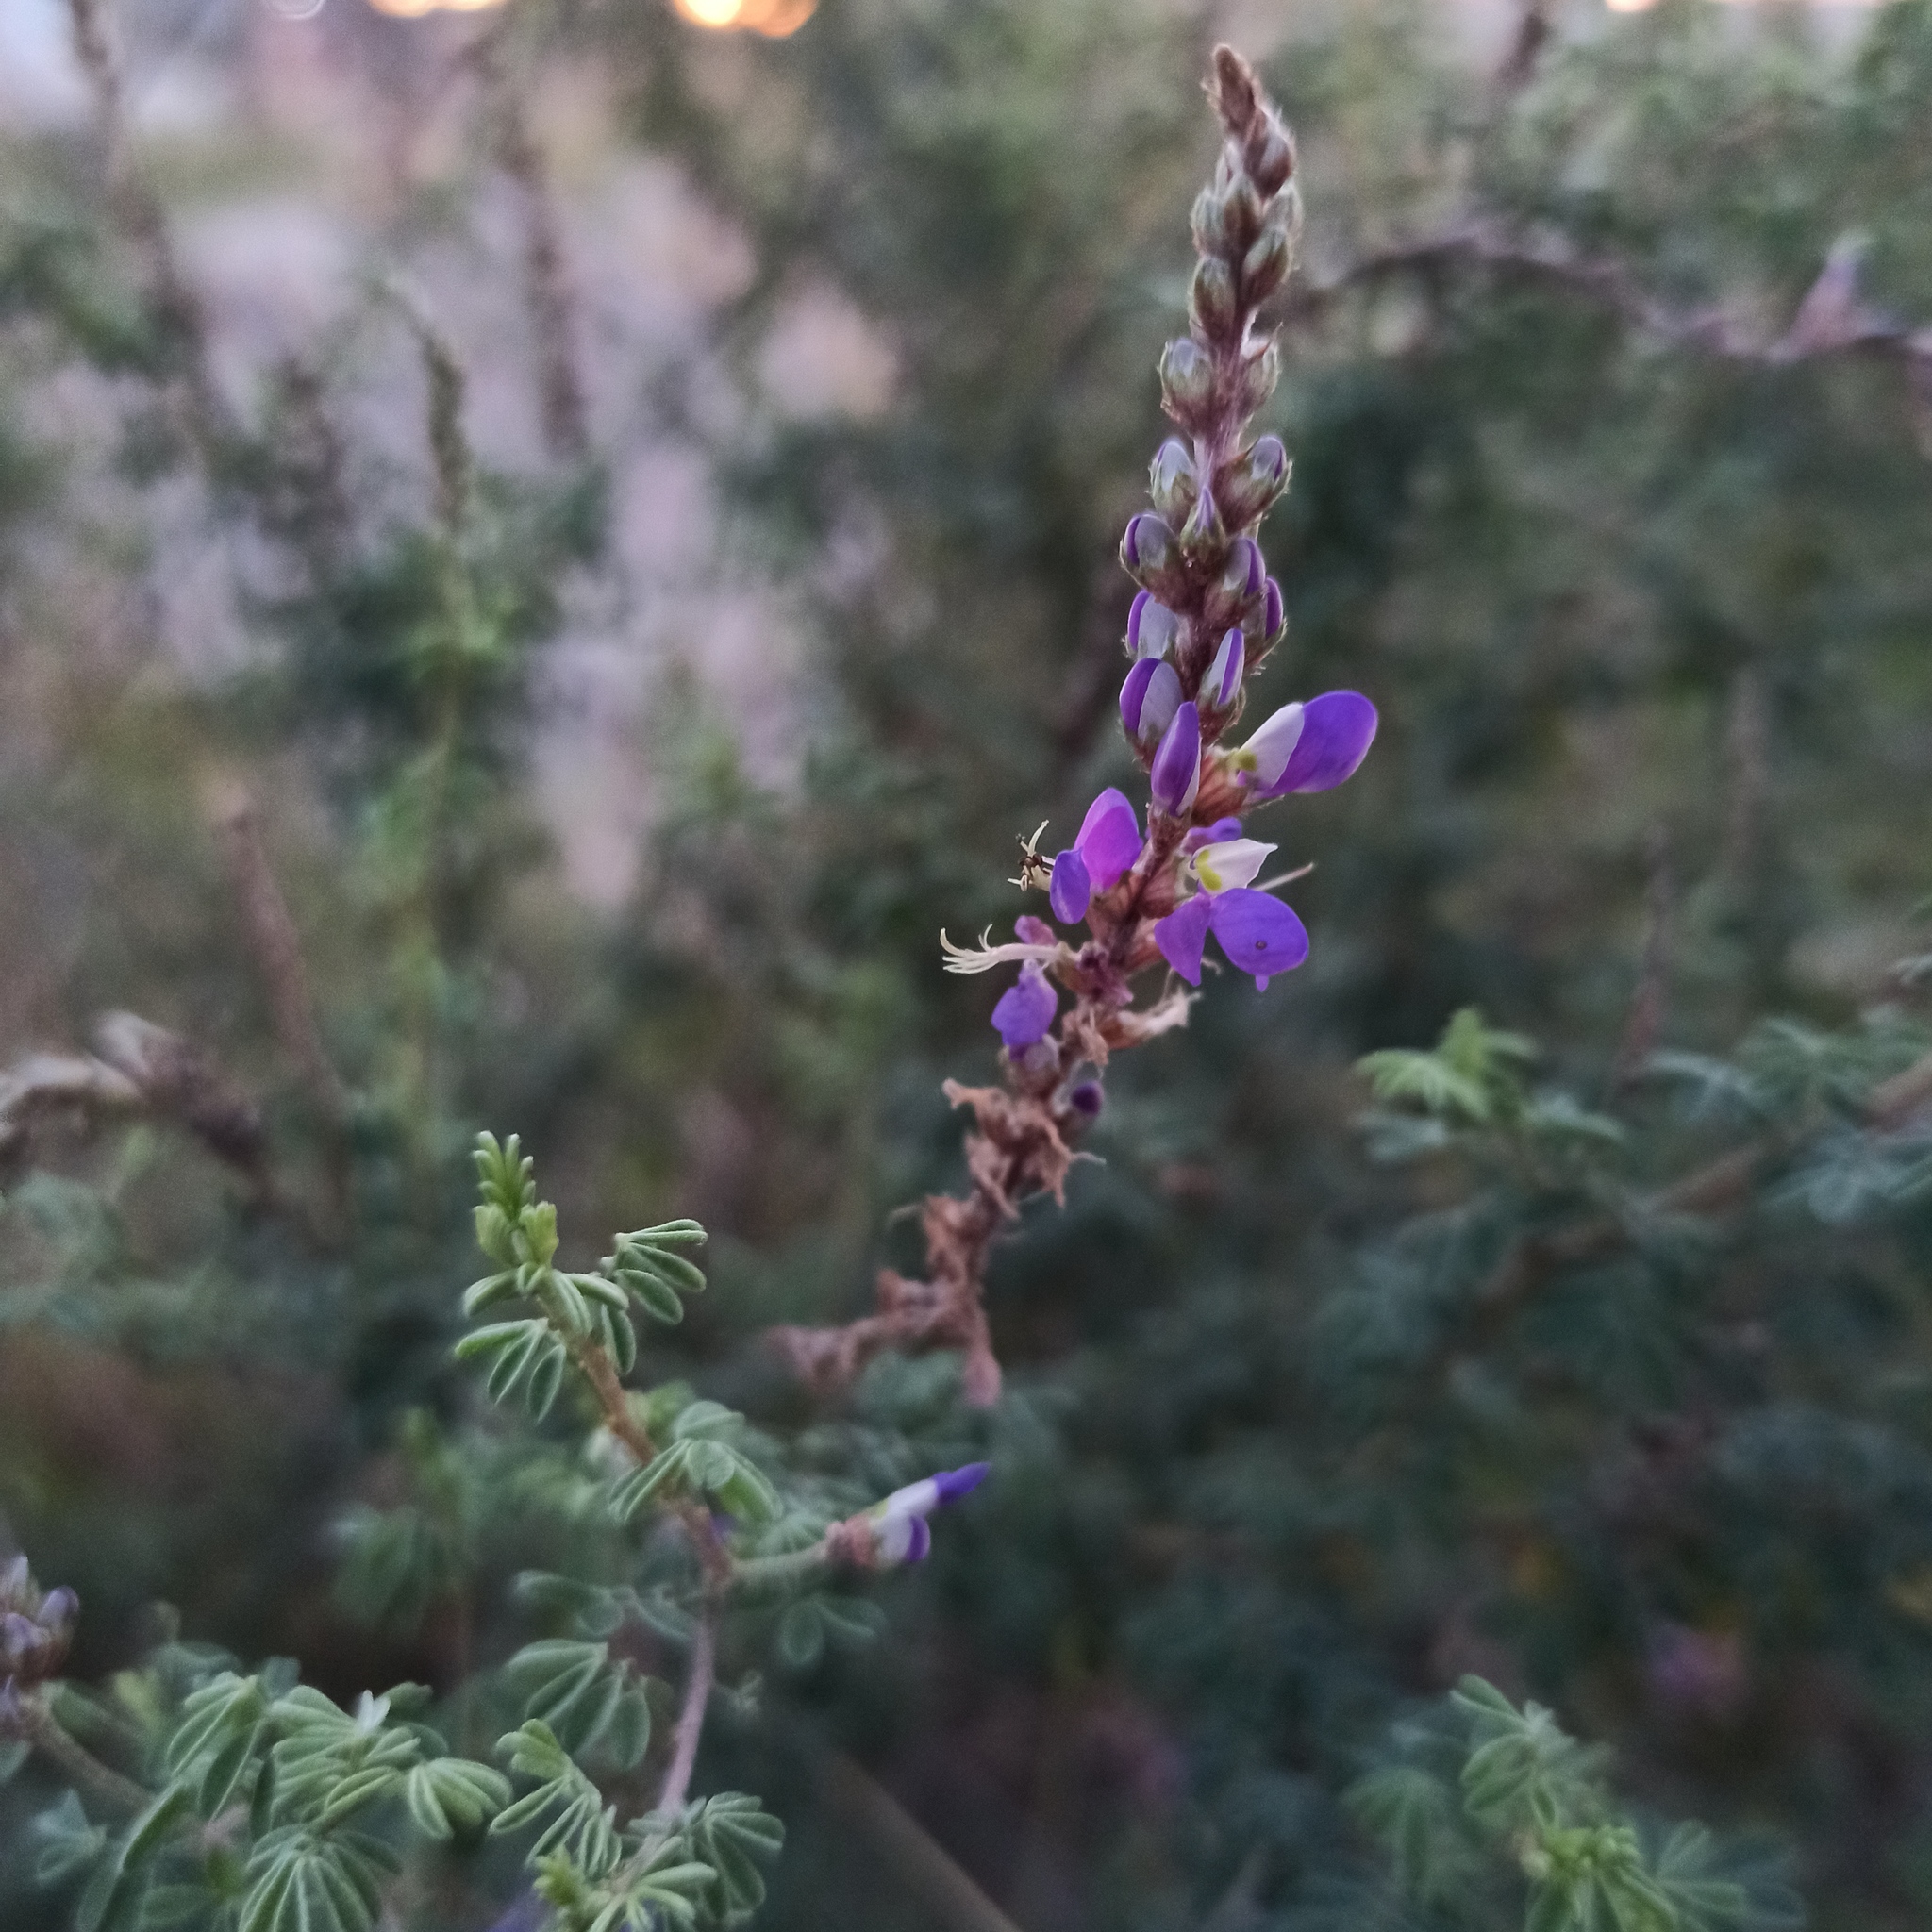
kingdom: Plantae
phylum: Tracheophyta
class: Magnoliopsida
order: Fabales
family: Fabaceae
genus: Dalea
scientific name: Dalea bicolor
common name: Silver prairie-clover
